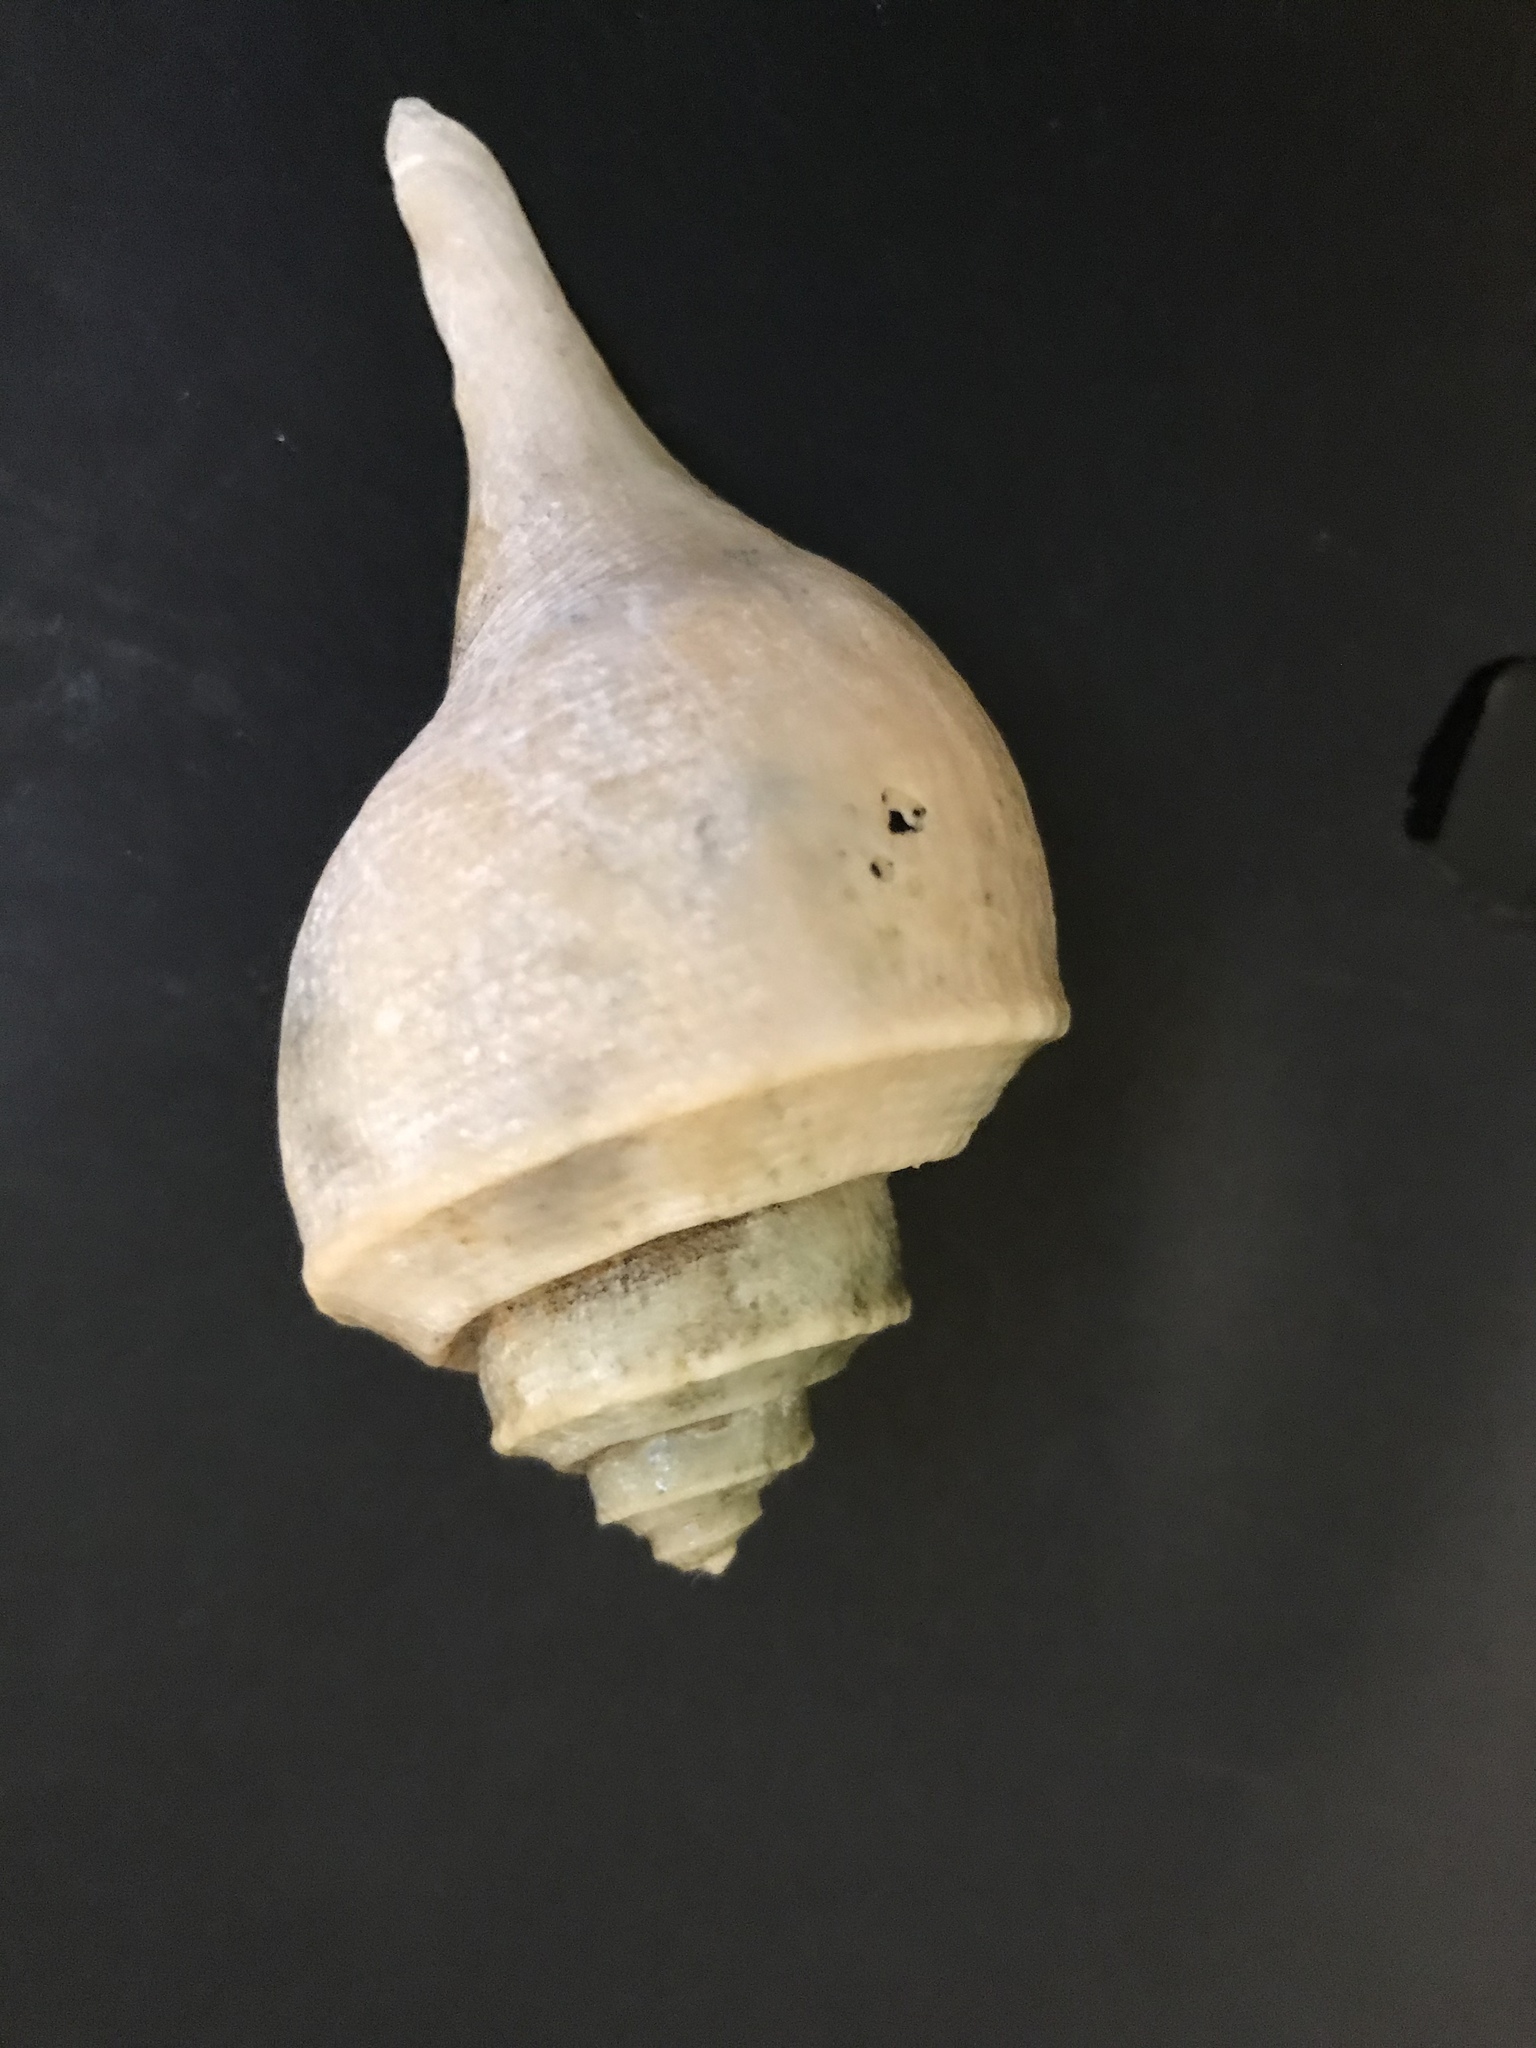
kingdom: Animalia
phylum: Mollusca
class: Gastropoda
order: Neogastropoda
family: Busyconidae
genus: Busycotypus
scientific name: Busycotypus canaliculatus
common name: Channeled whelk
